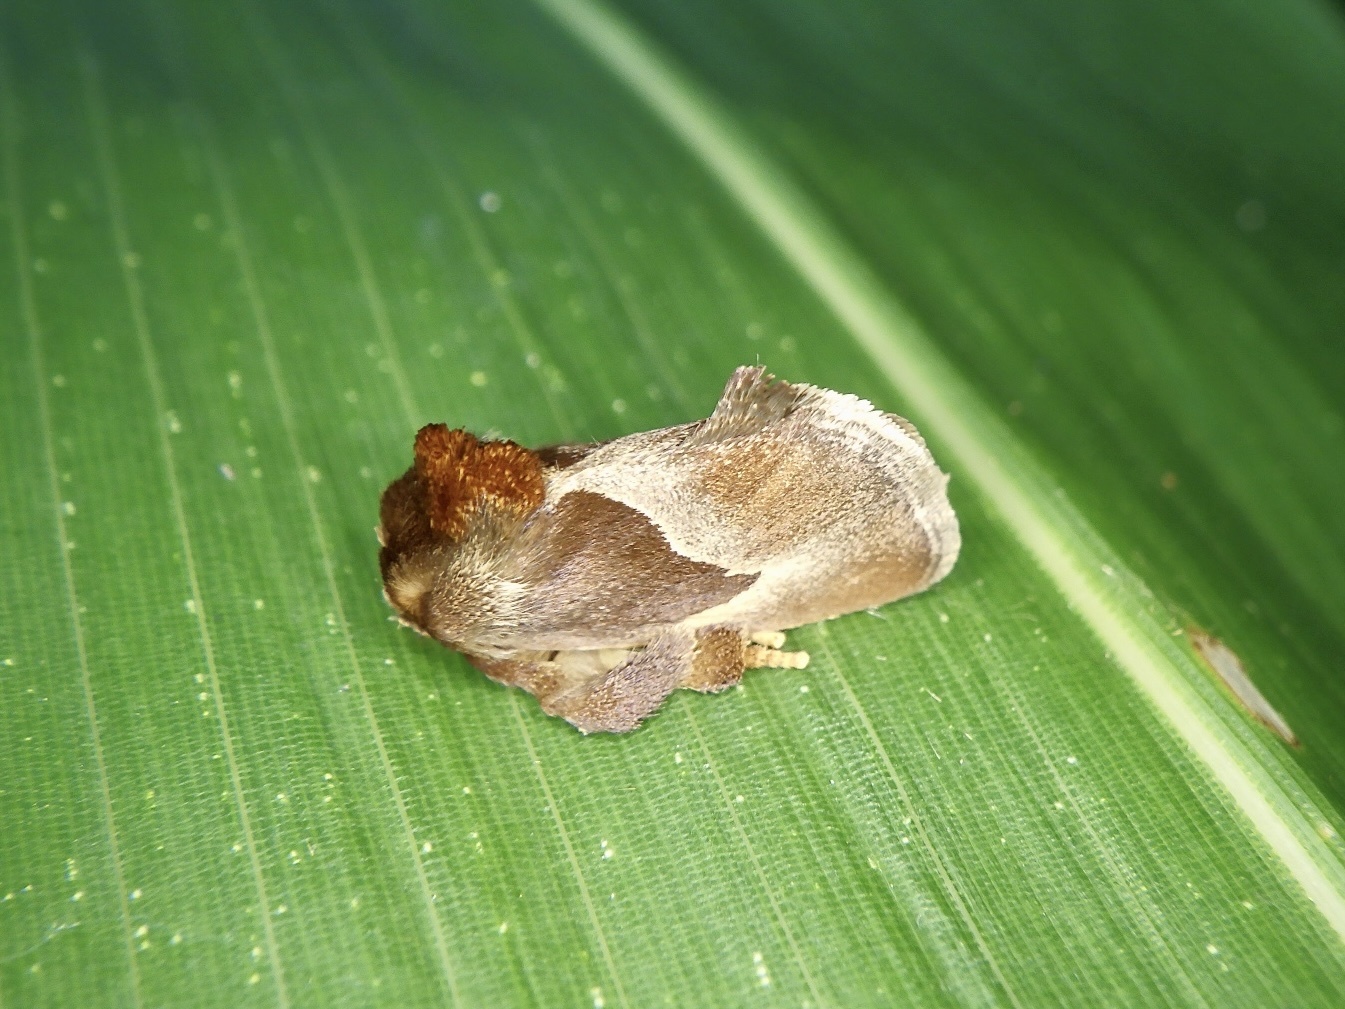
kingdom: Animalia
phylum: Arthropoda
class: Insecta
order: Lepidoptera
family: Limacodidae
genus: Phrixolepia
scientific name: Phrixolepia sericea
